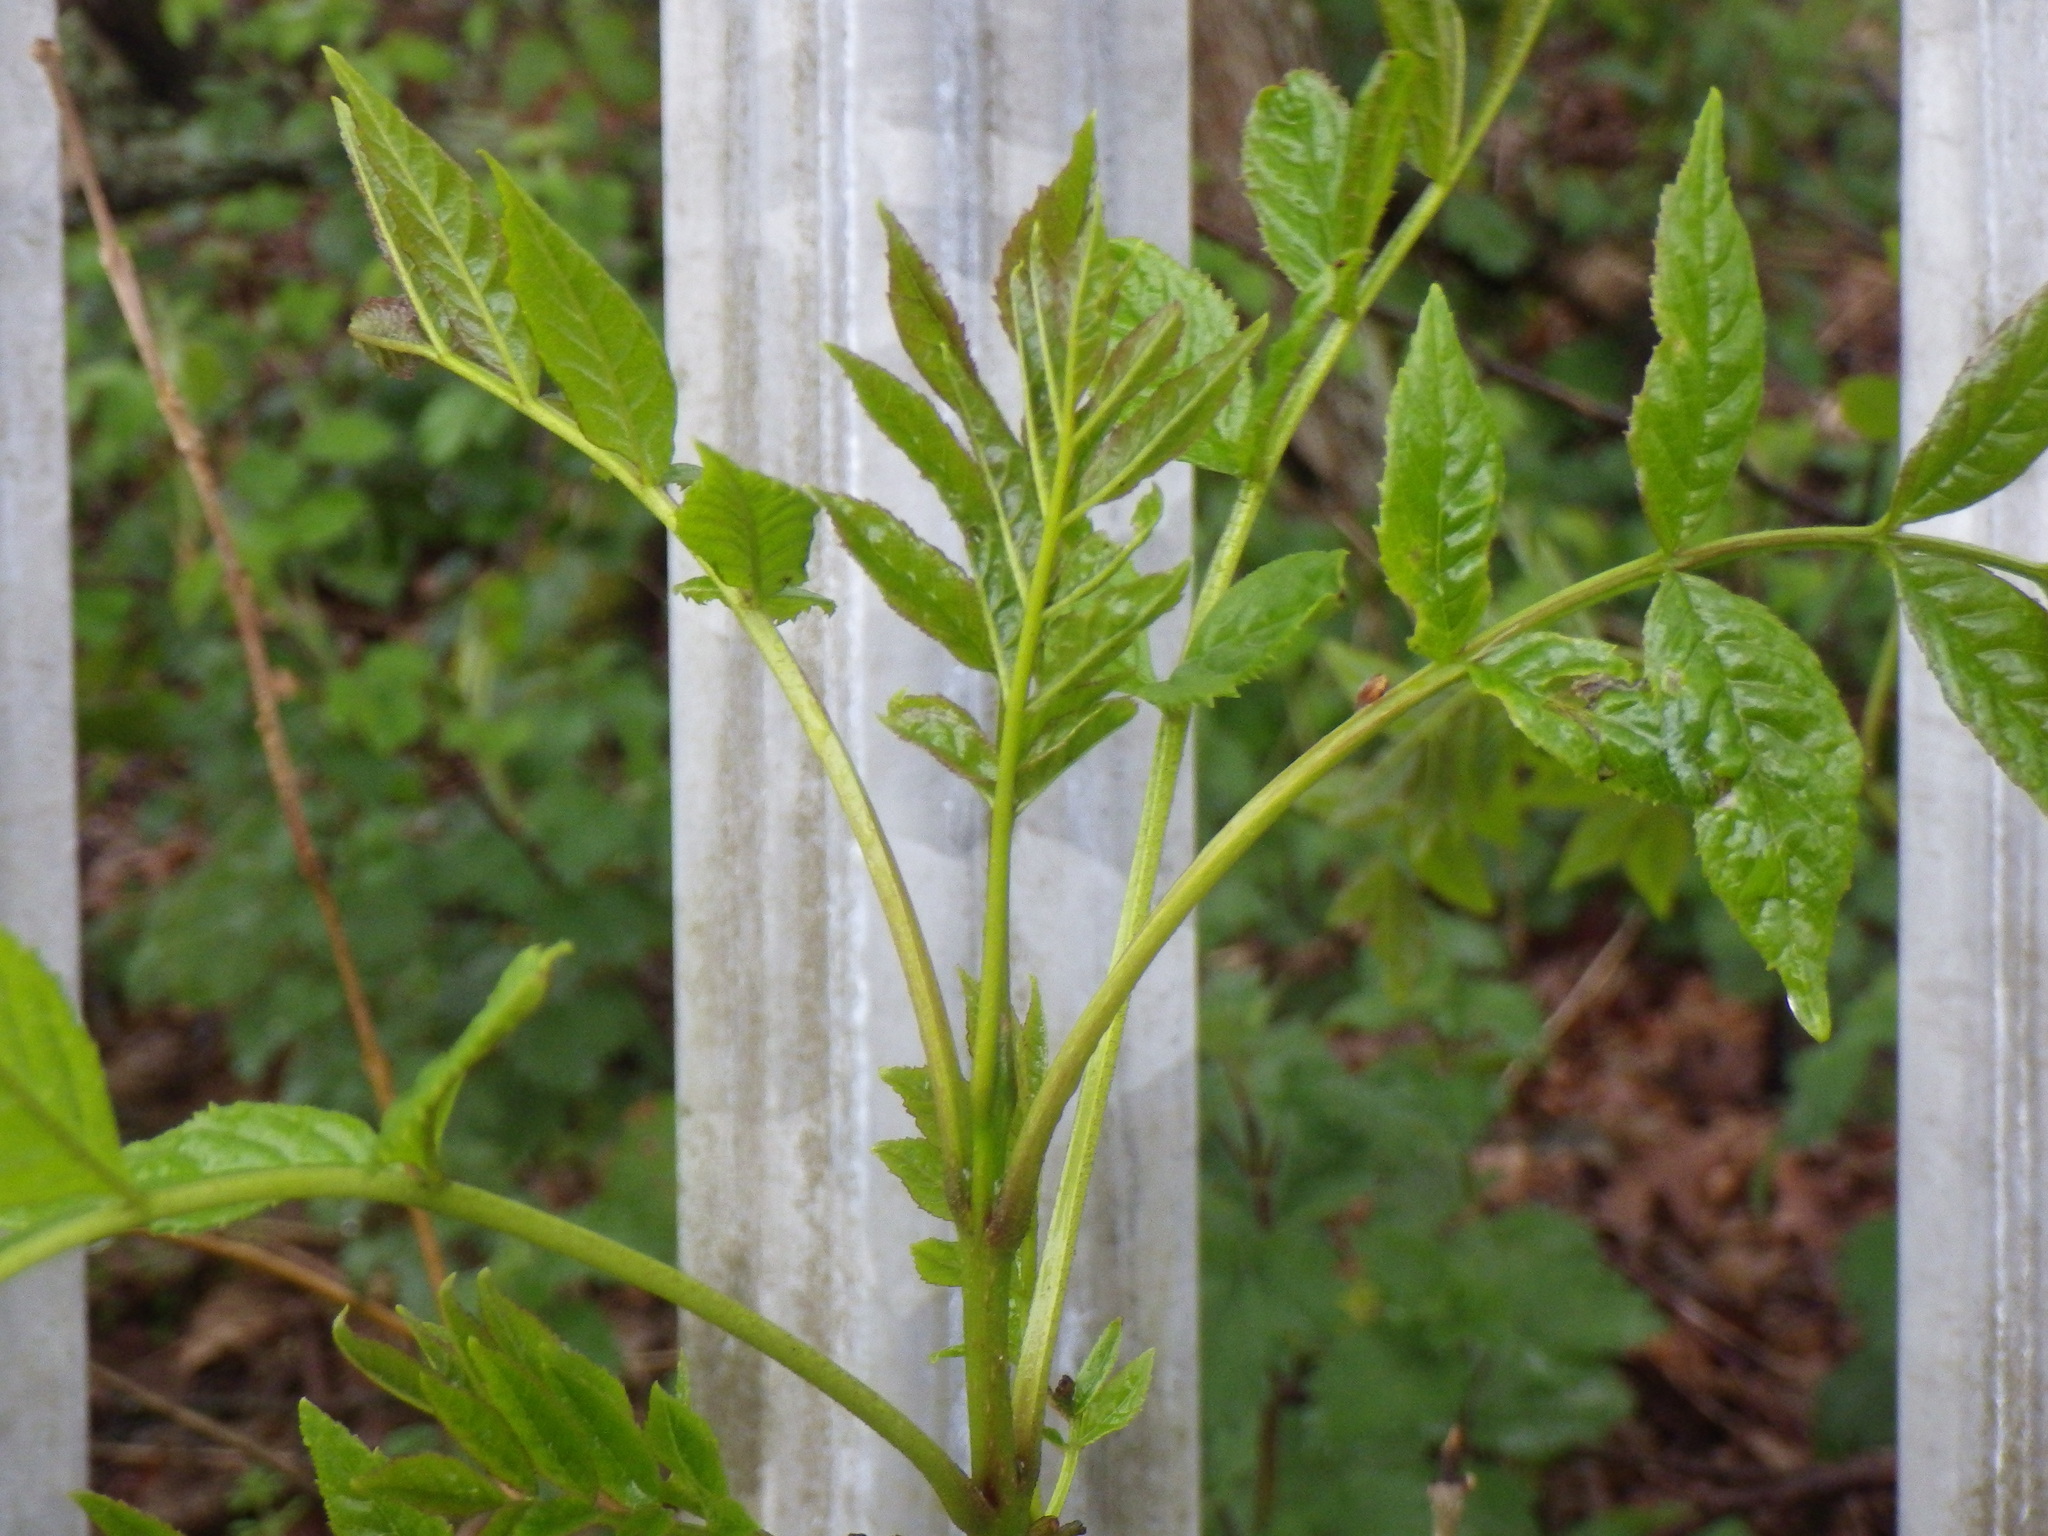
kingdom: Plantae
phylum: Tracheophyta
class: Magnoliopsida
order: Lamiales
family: Oleaceae
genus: Fraxinus
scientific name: Fraxinus excelsior
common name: European ash
